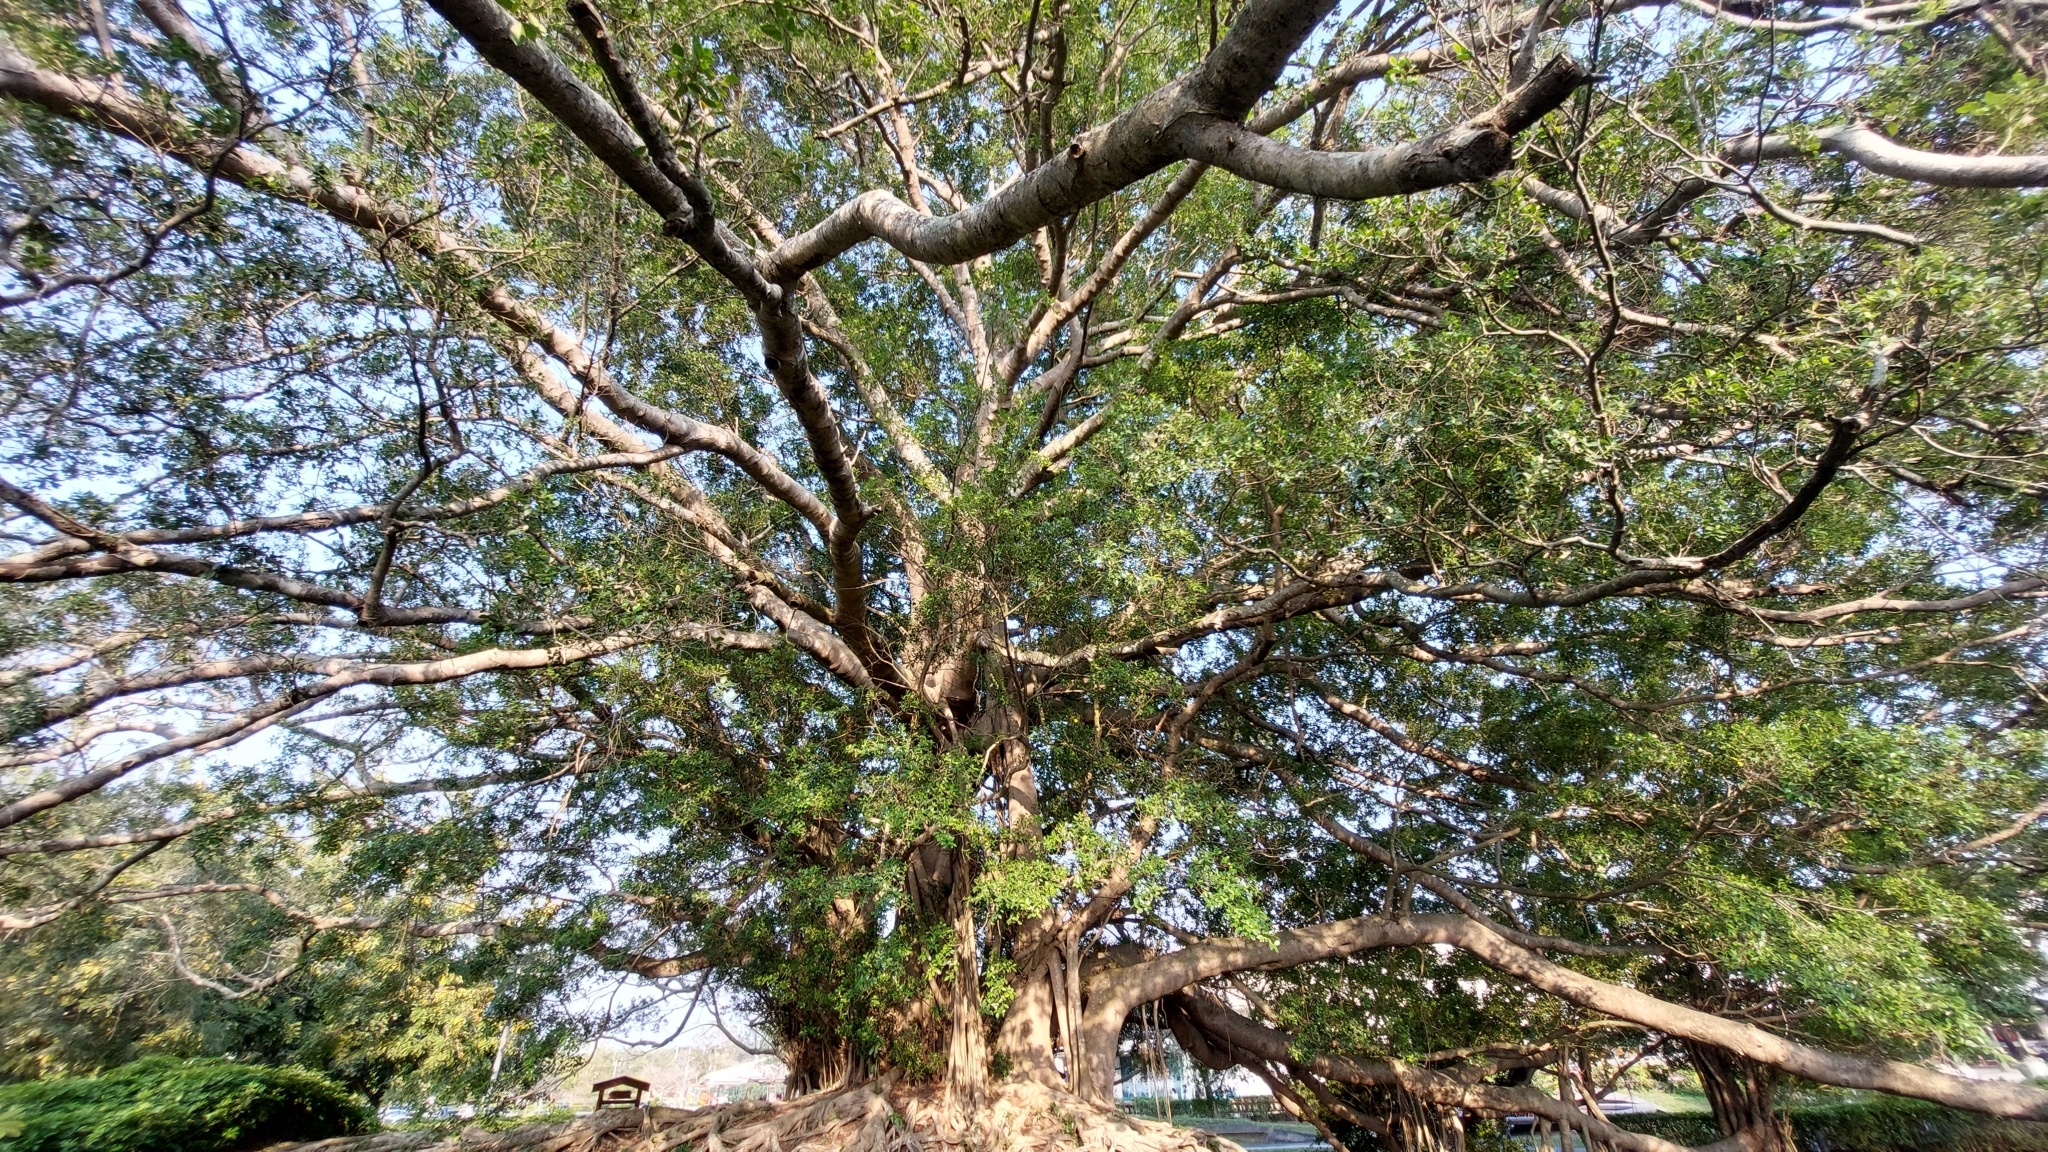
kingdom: Plantae
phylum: Tracheophyta
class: Magnoliopsida
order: Rosales
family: Moraceae
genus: Ficus
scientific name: Ficus microcarpa
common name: Chinese banyan
